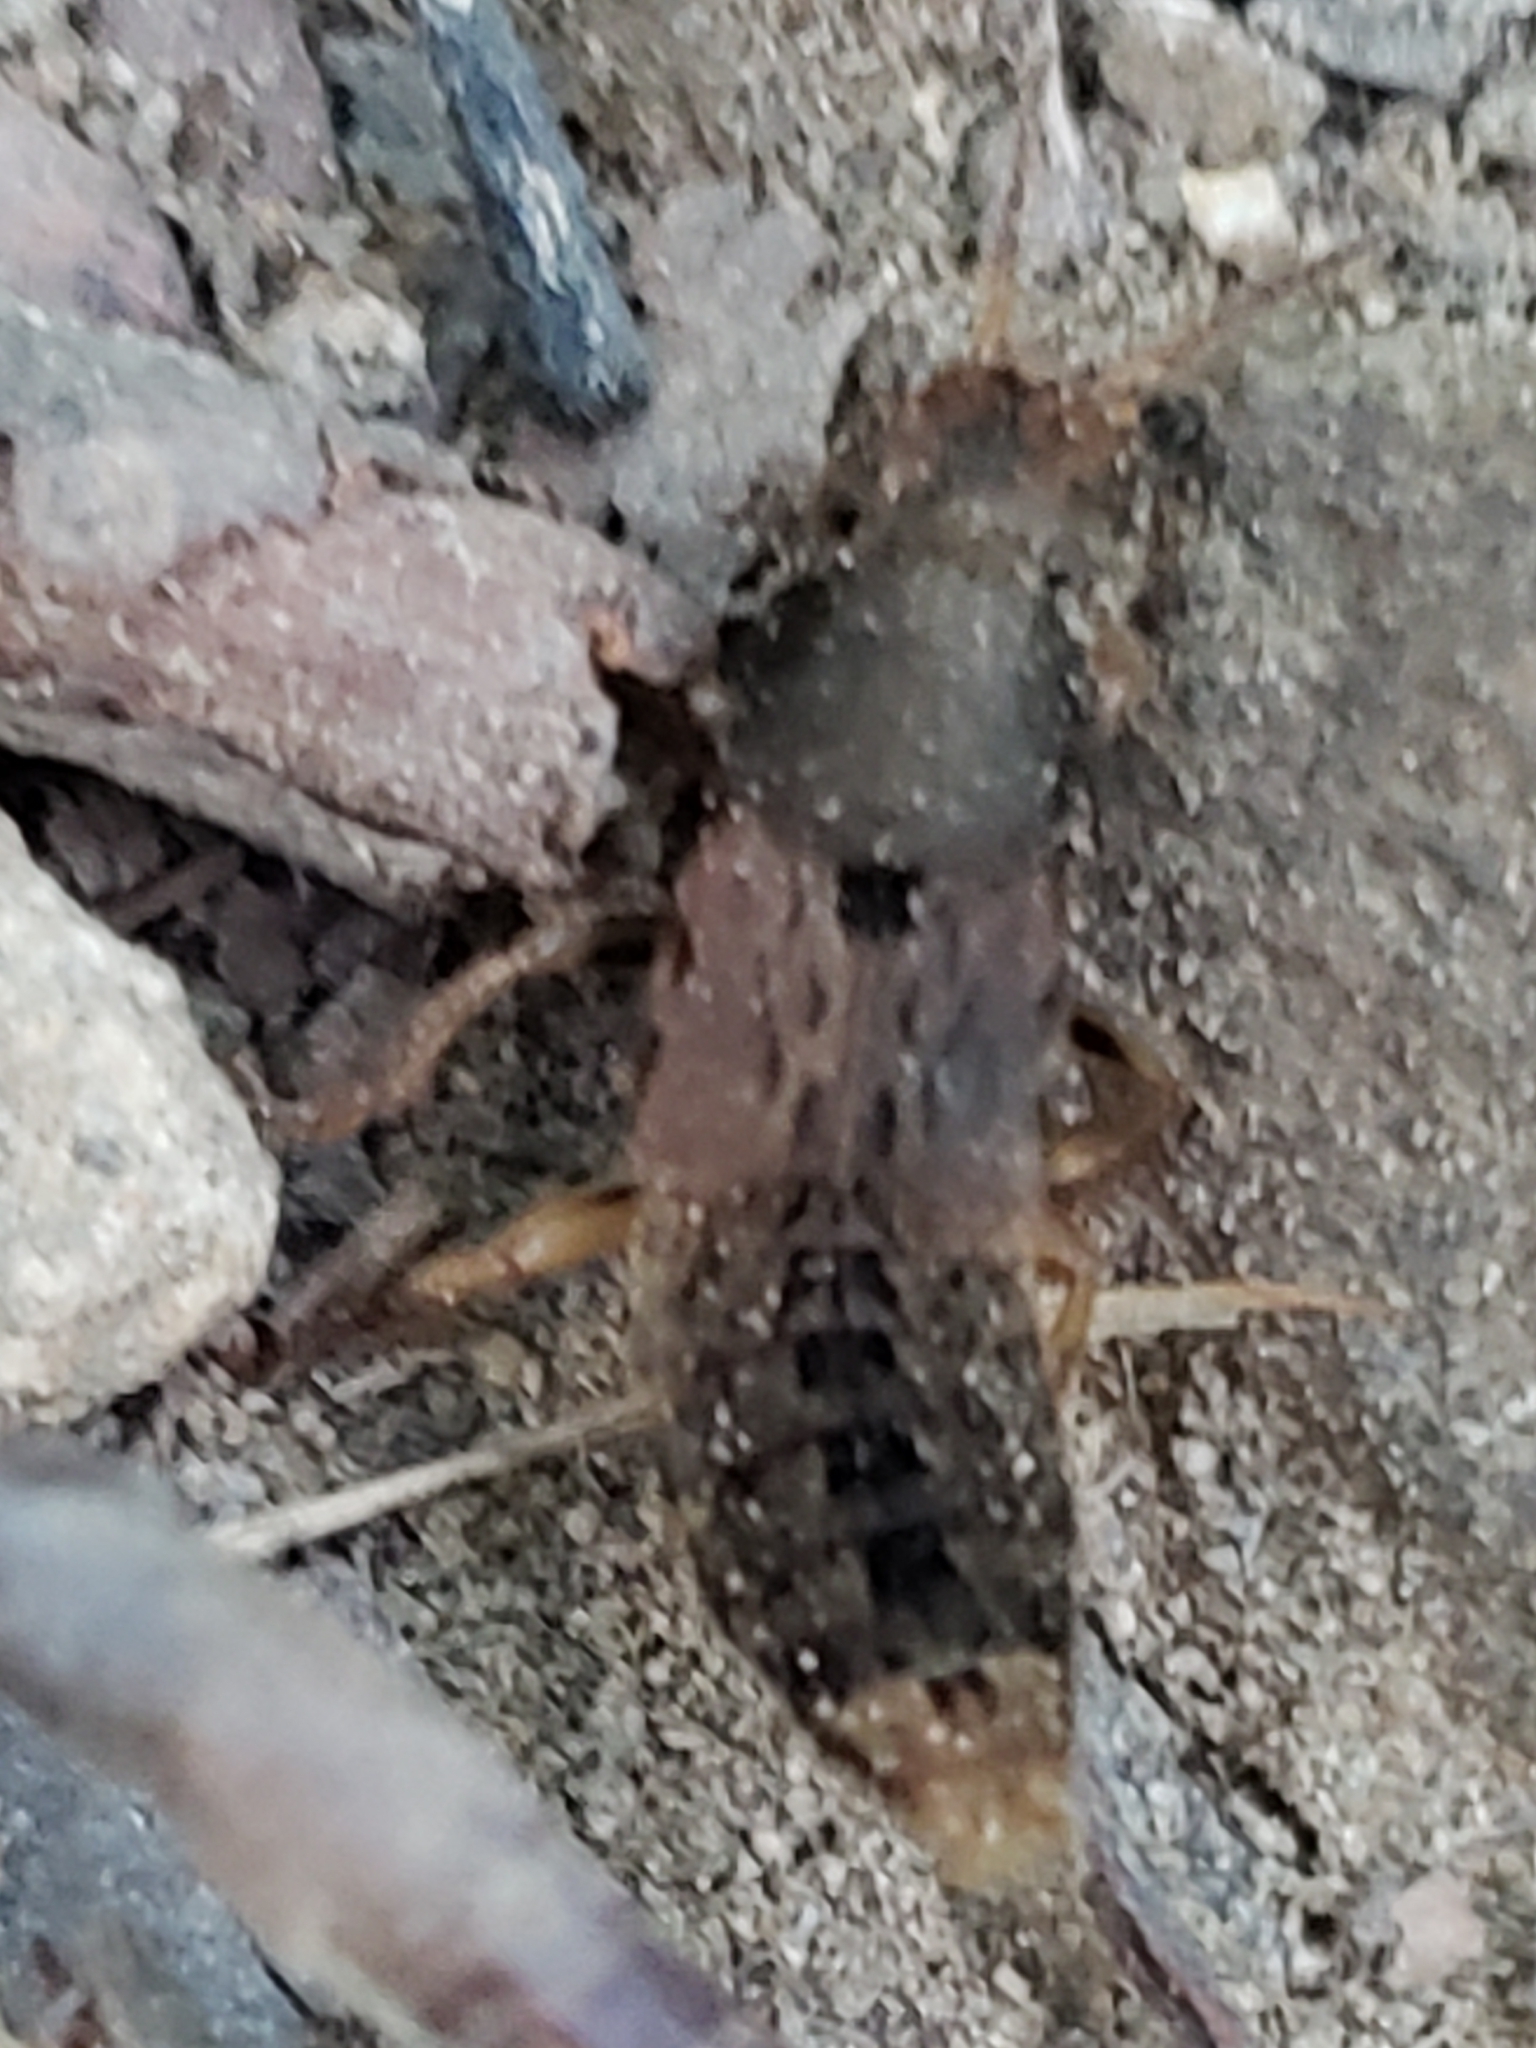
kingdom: Animalia
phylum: Arthropoda
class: Insecta
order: Coleoptera
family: Staphylinidae
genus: Platydracus
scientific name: Platydracus maculosus
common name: Brown rove beetle
